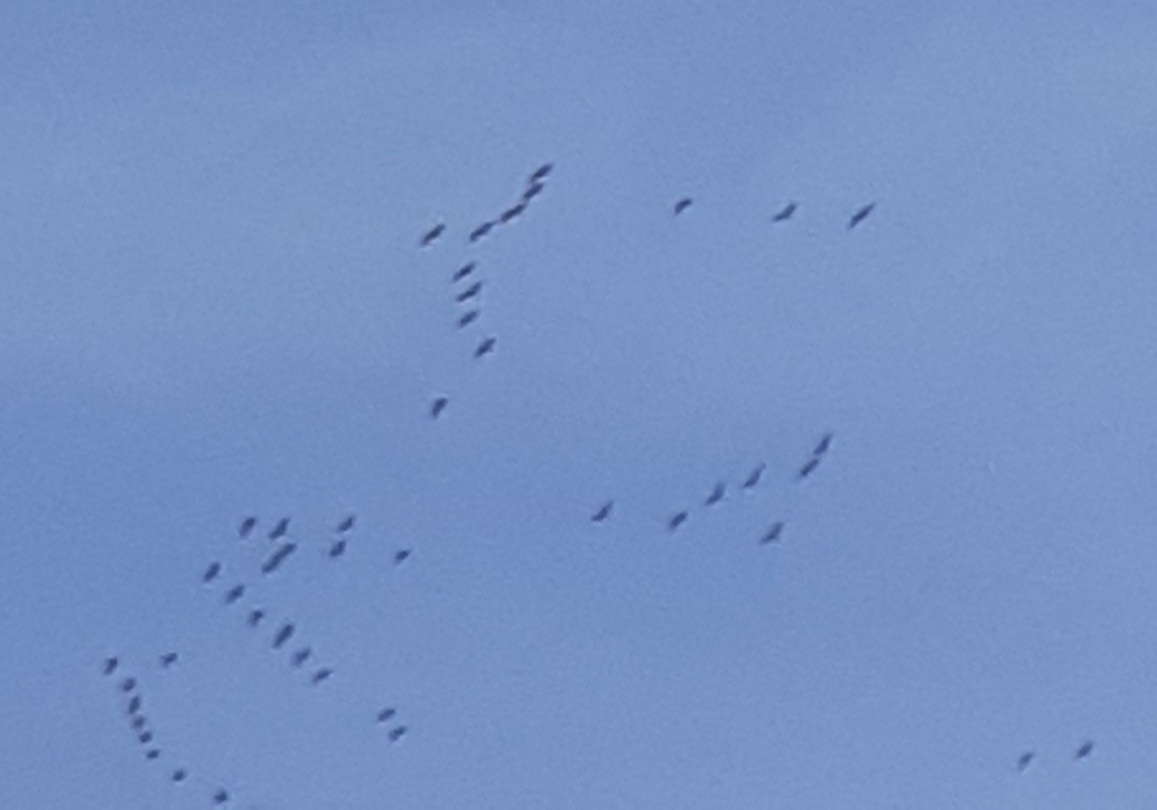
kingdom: Animalia
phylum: Chordata
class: Aves
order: Gruiformes
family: Gruidae
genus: Grus
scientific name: Grus canadensis
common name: Sandhill crane
